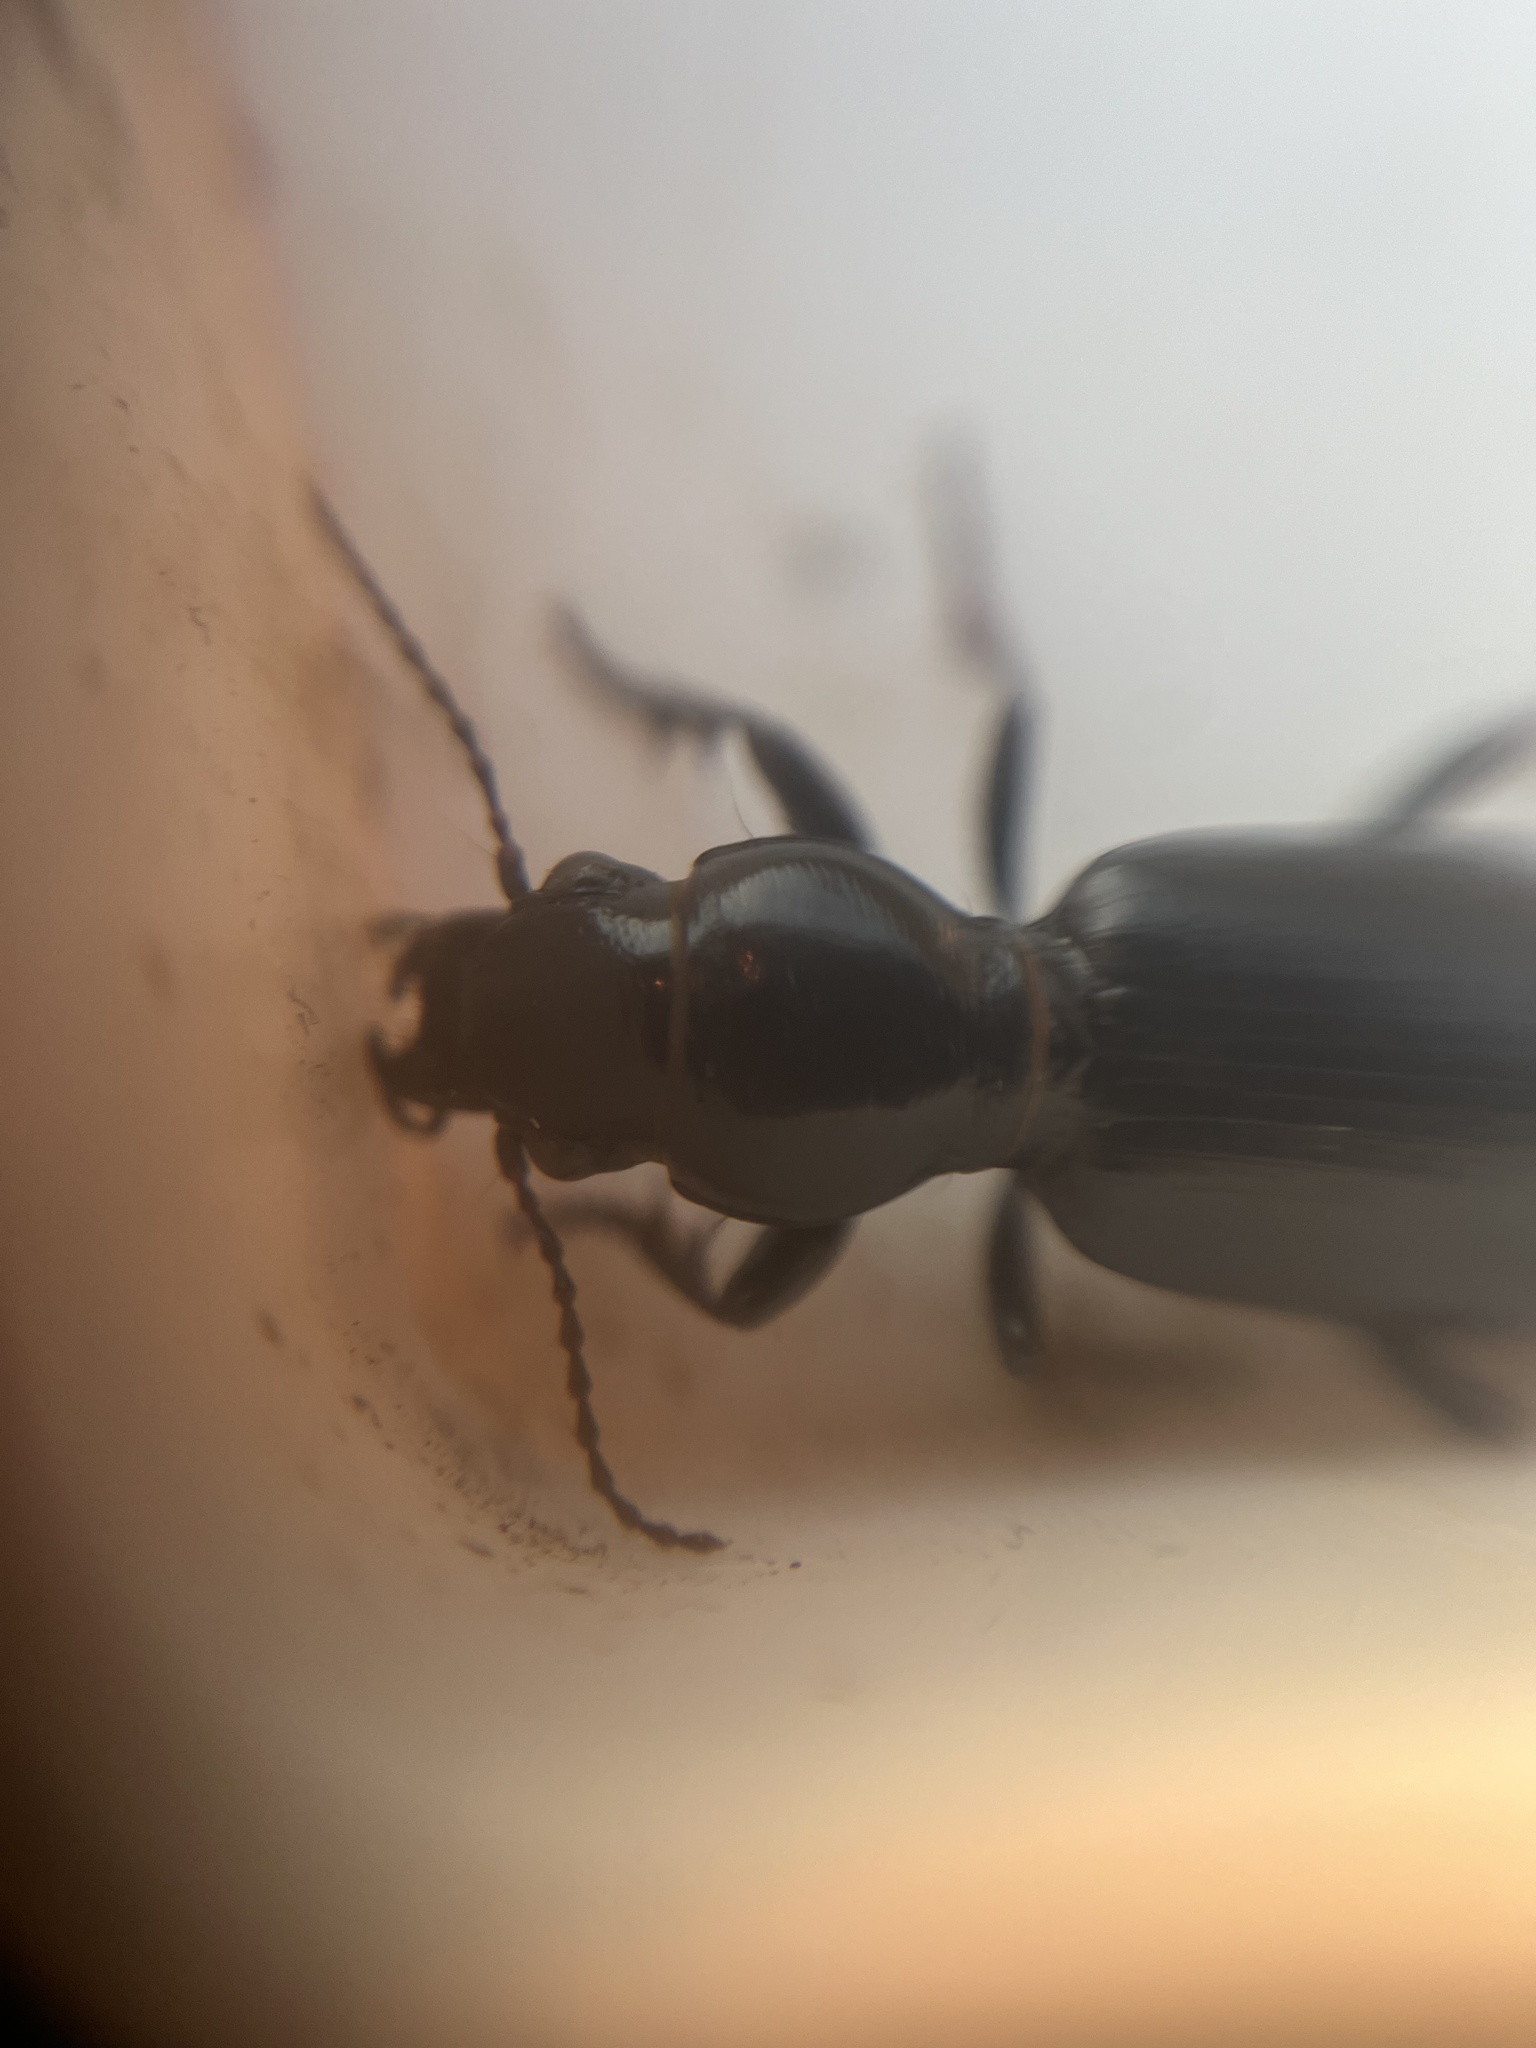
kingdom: Animalia
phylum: Arthropoda
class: Insecta
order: Coleoptera
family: Carabidae
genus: Broscus
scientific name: Broscus cephalotes
